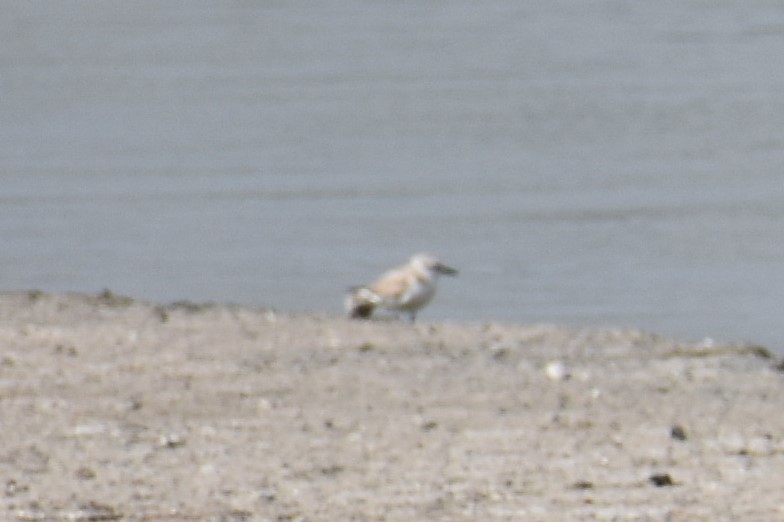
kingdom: Animalia
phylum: Chordata
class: Aves
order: Charadriiformes
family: Charadriidae
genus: Charadrius
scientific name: Charadrius alexandrinus
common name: Kentish plover
